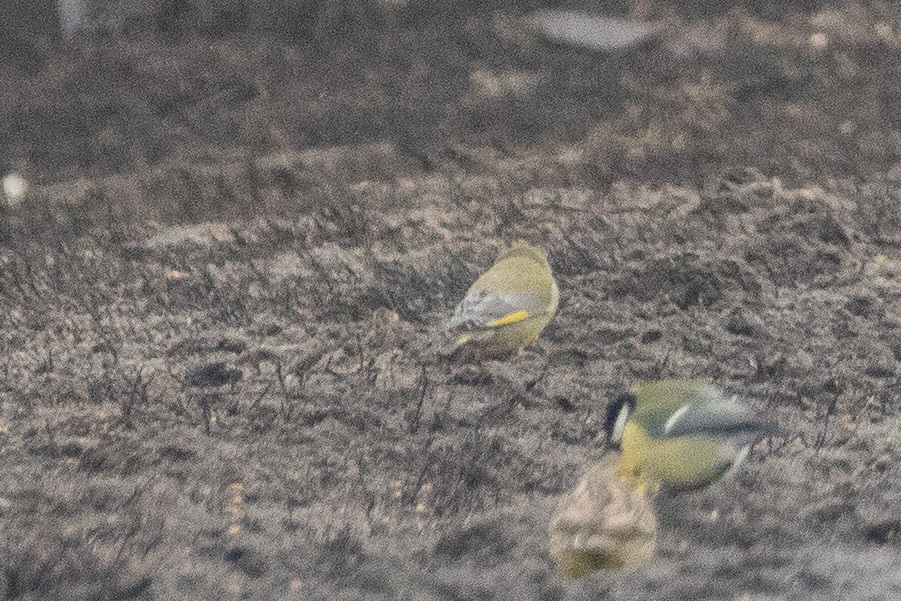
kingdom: Plantae
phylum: Tracheophyta
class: Liliopsida
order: Poales
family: Poaceae
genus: Chloris
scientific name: Chloris chloris
